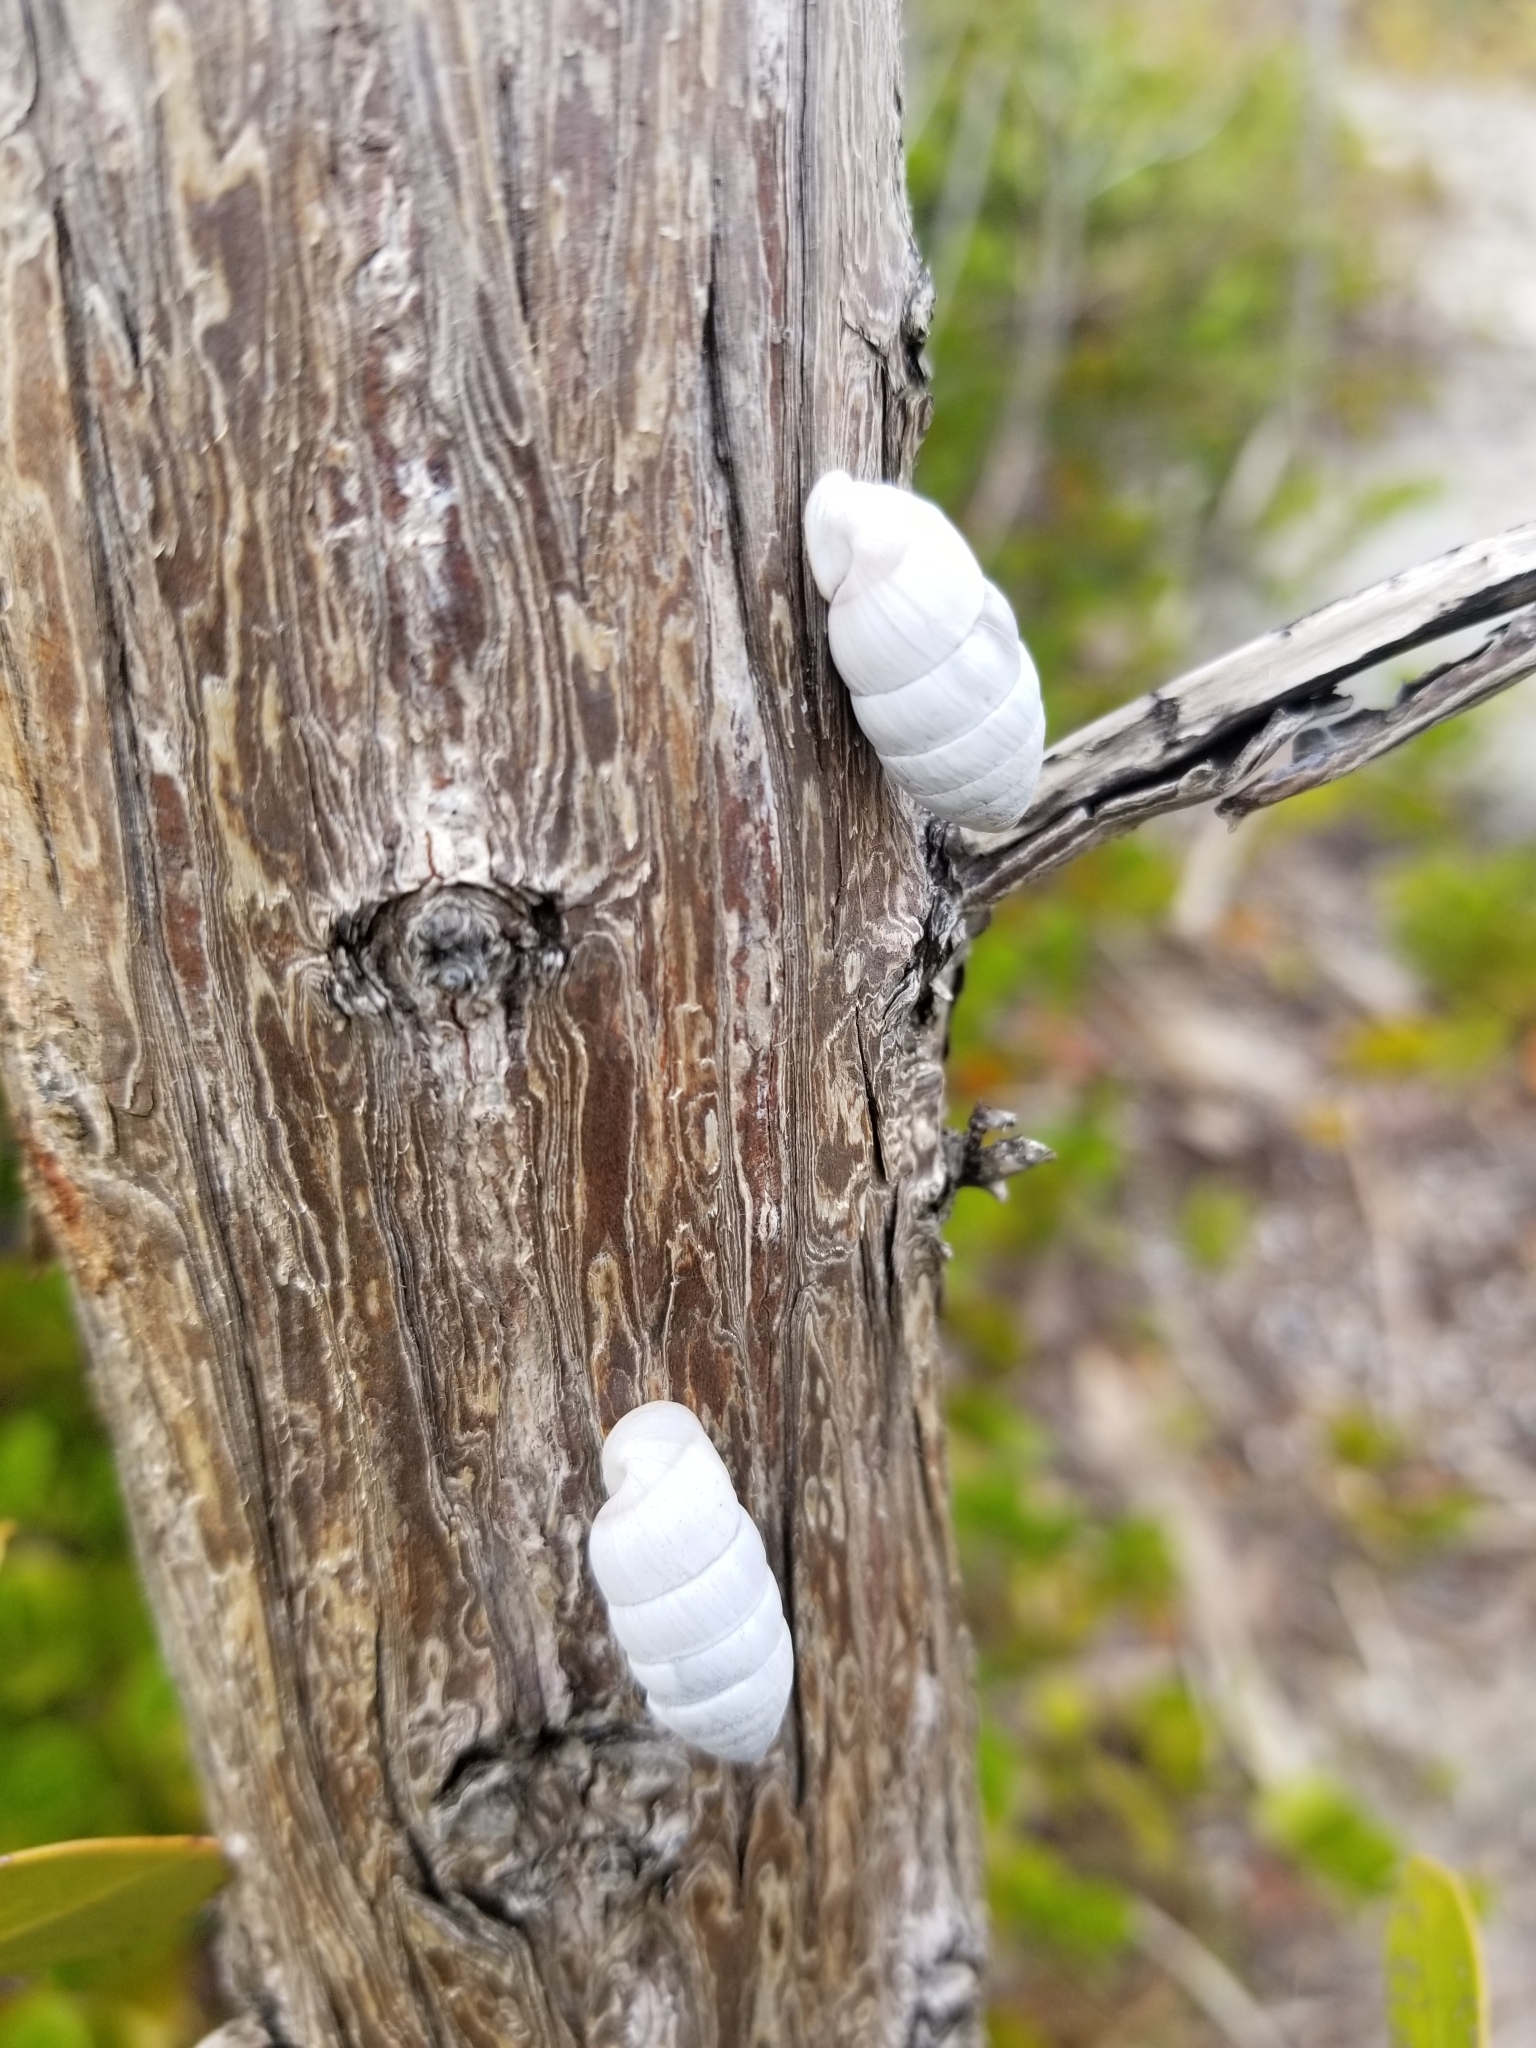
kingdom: Animalia
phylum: Mollusca
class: Gastropoda
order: Stylommatophora
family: Cerionidae
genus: Cerion
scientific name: Cerion incanum
